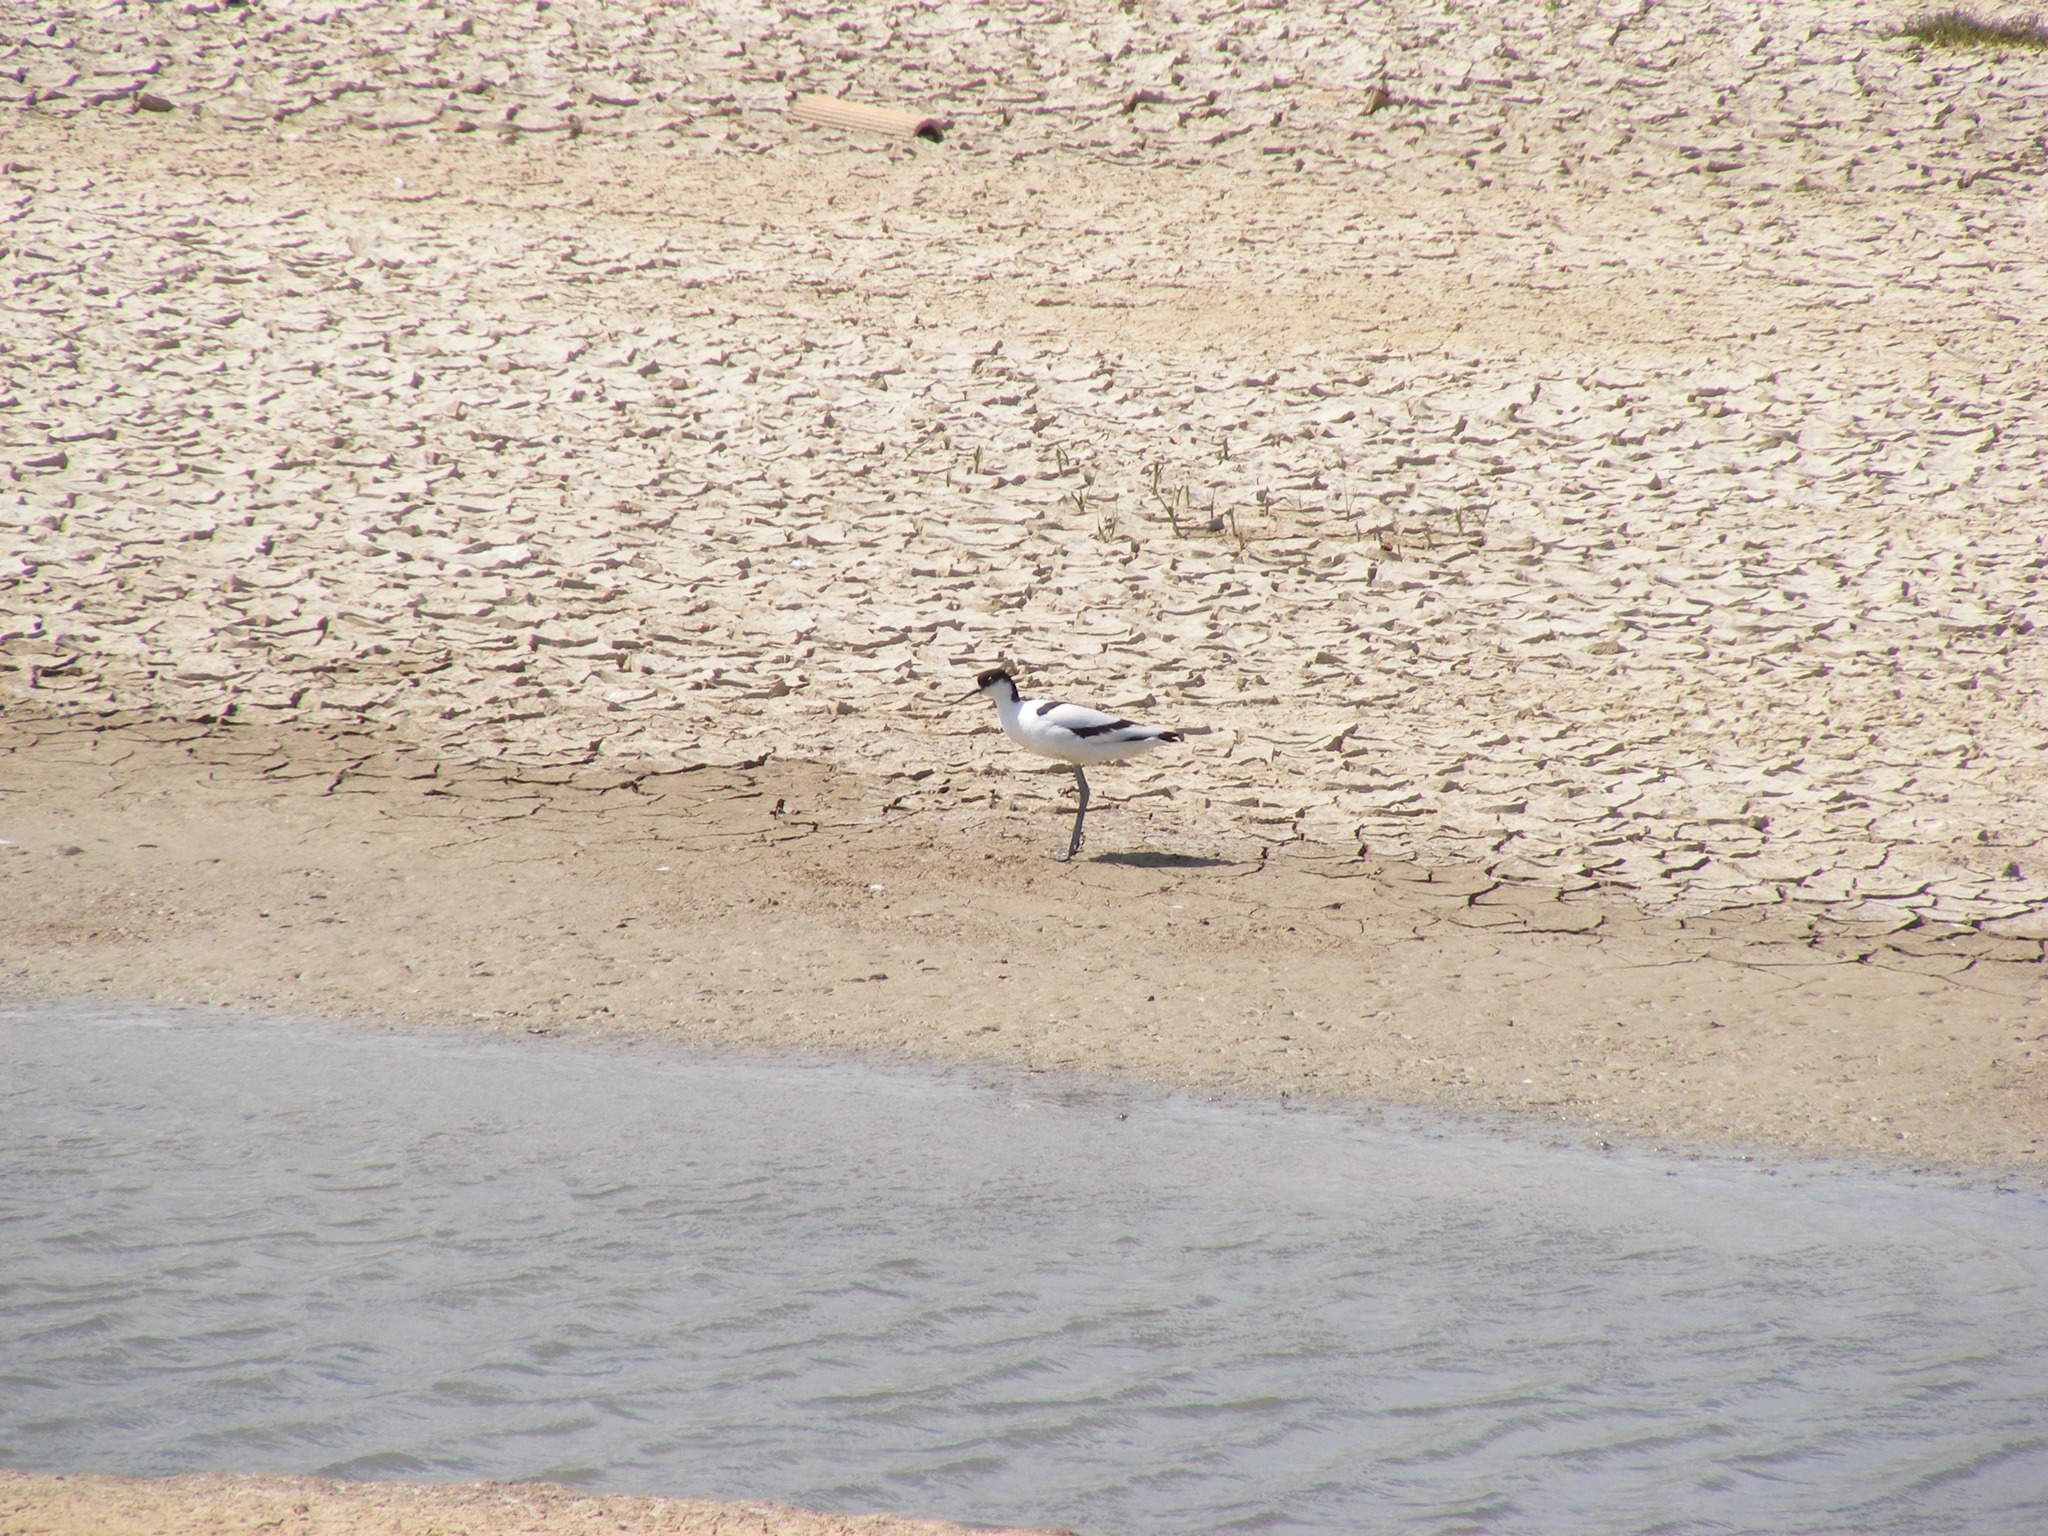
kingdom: Animalia
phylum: Chordata
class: Aves
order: Charadriiformes
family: Recurvirostridae
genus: Recurvirostra
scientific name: Recurvirostra avosetta
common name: Pied avocet
